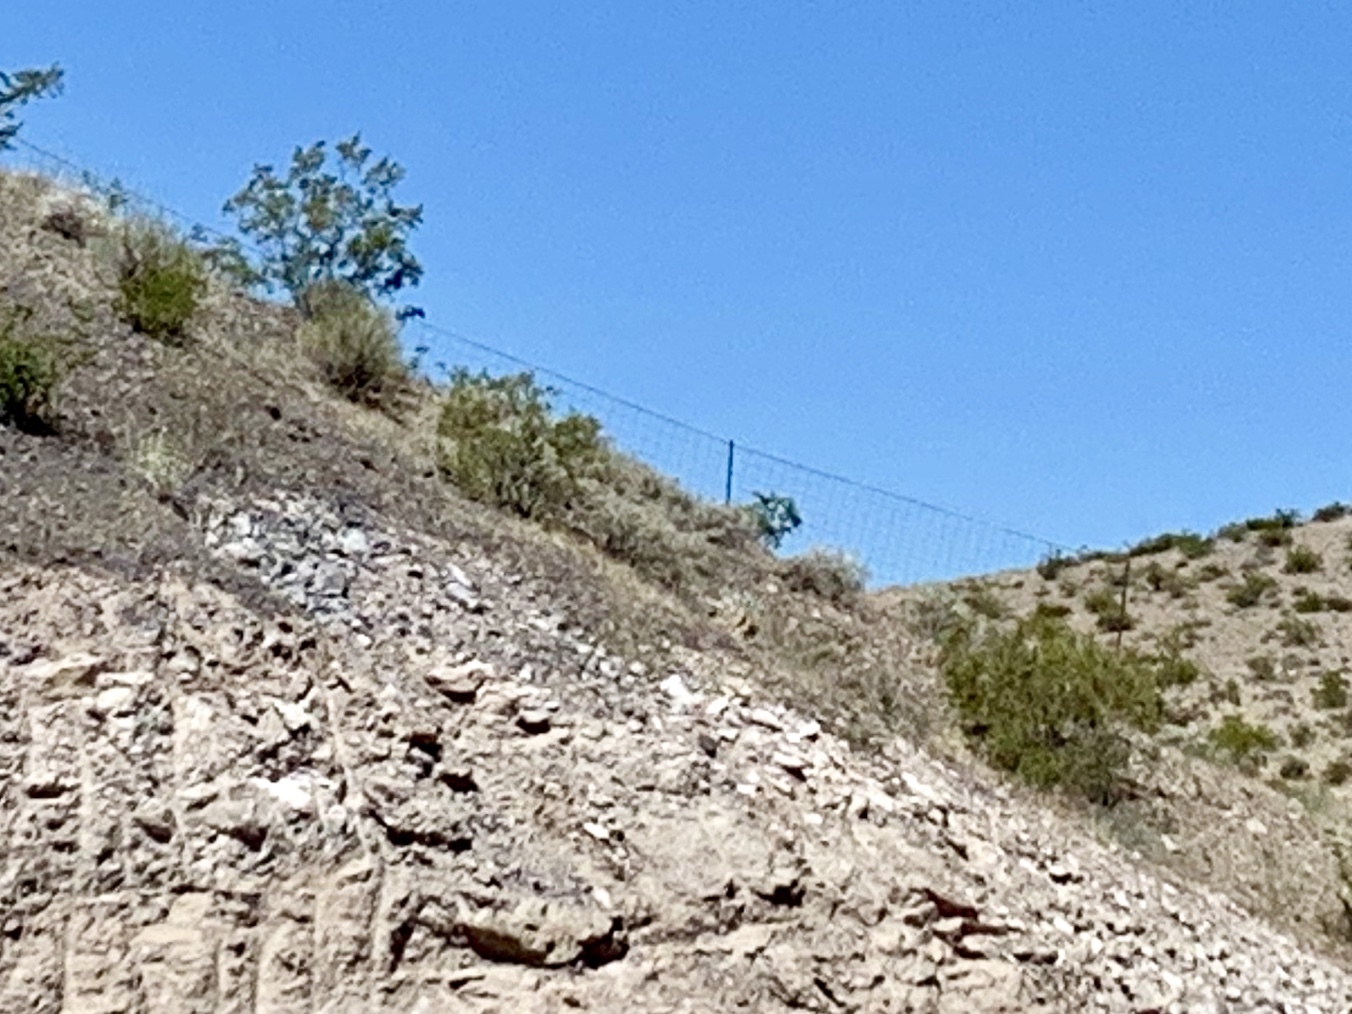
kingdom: Plantae
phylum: Tracheophyta
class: Magnoliopsida
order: Zygophyllales
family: Zygophyllaceae
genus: Larrea
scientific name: Larrea tridentata
